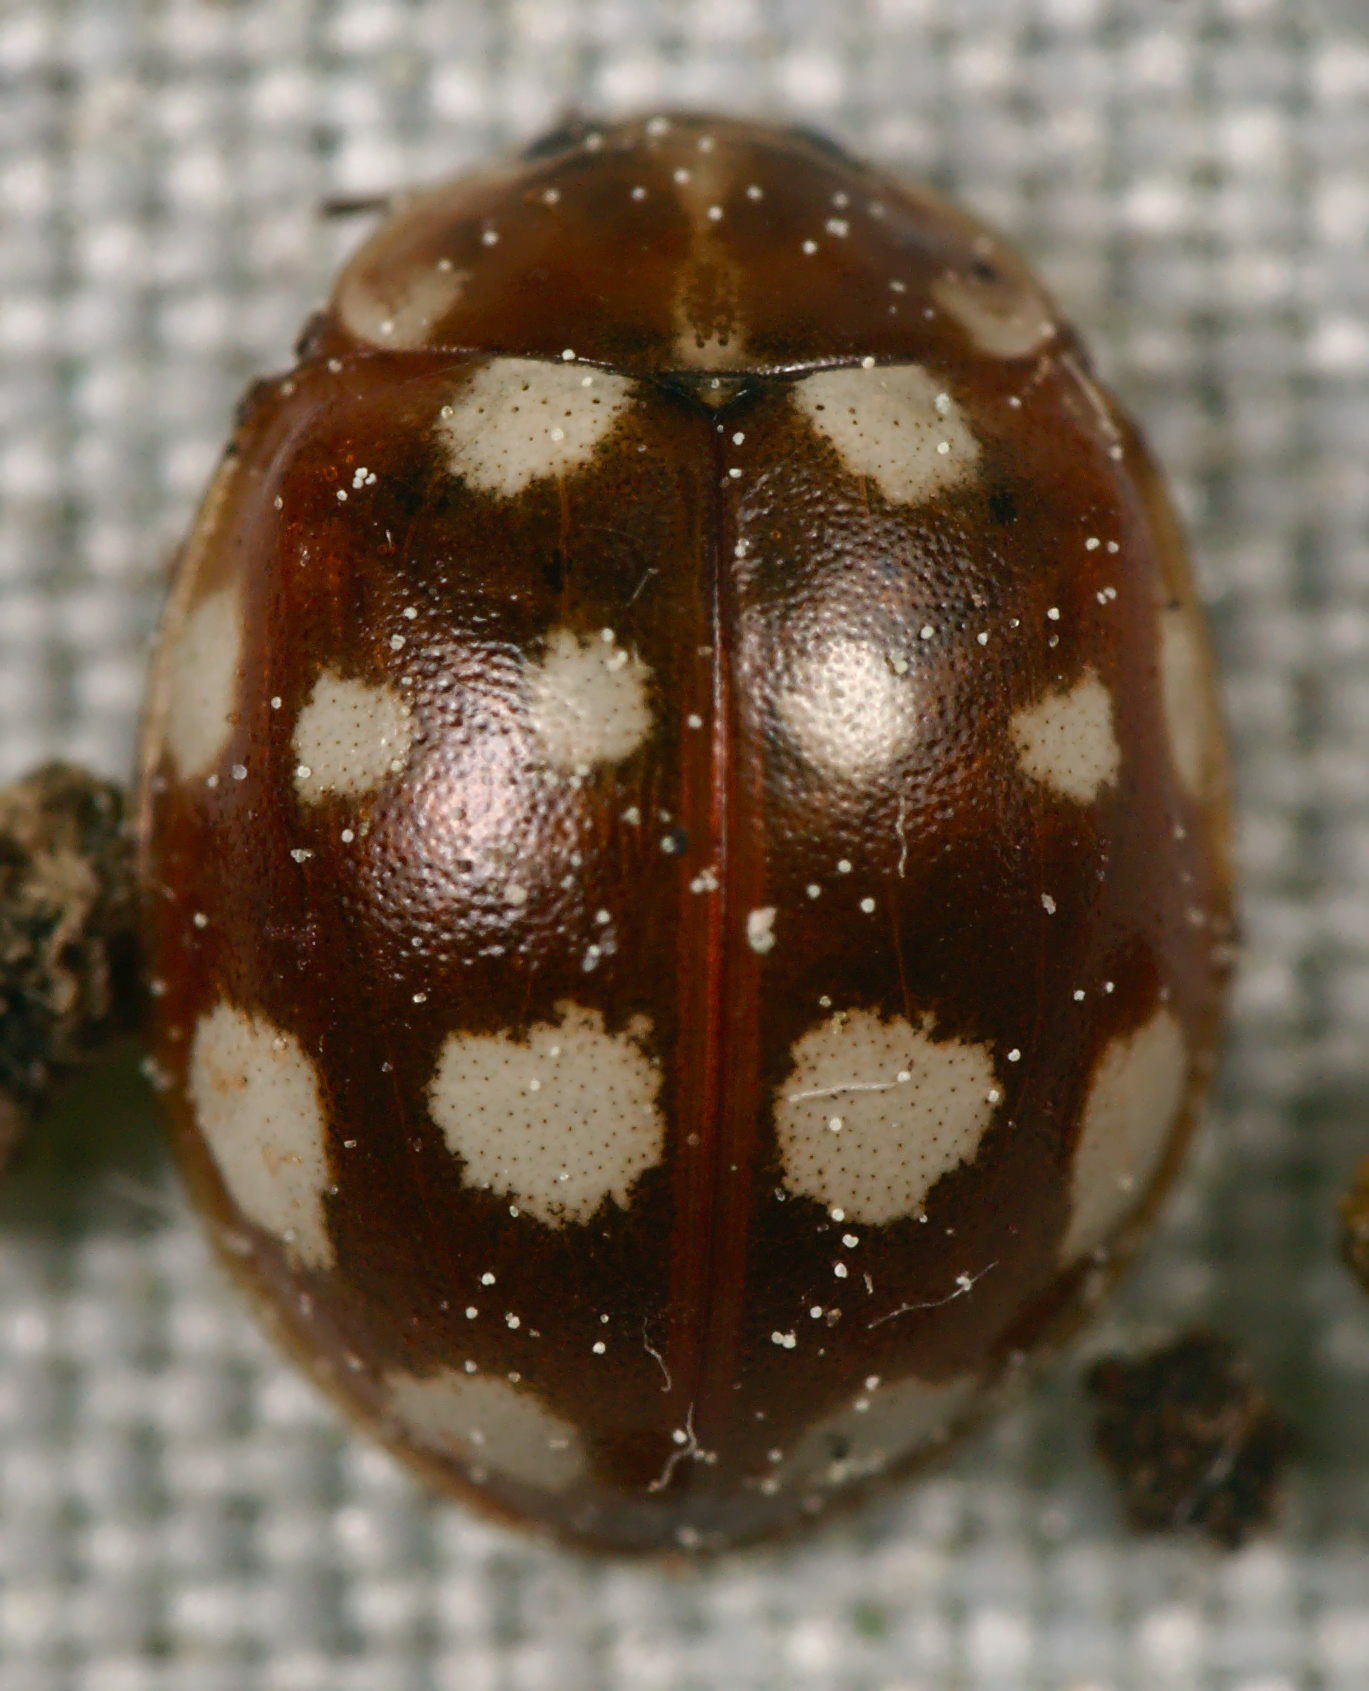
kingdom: Animalia
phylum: Arthropoda
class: Insecta
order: Coleoptera
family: Coccinellidae
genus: Calvia
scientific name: Calvia quatuordecimguttata
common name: Cream-spot ladybird
